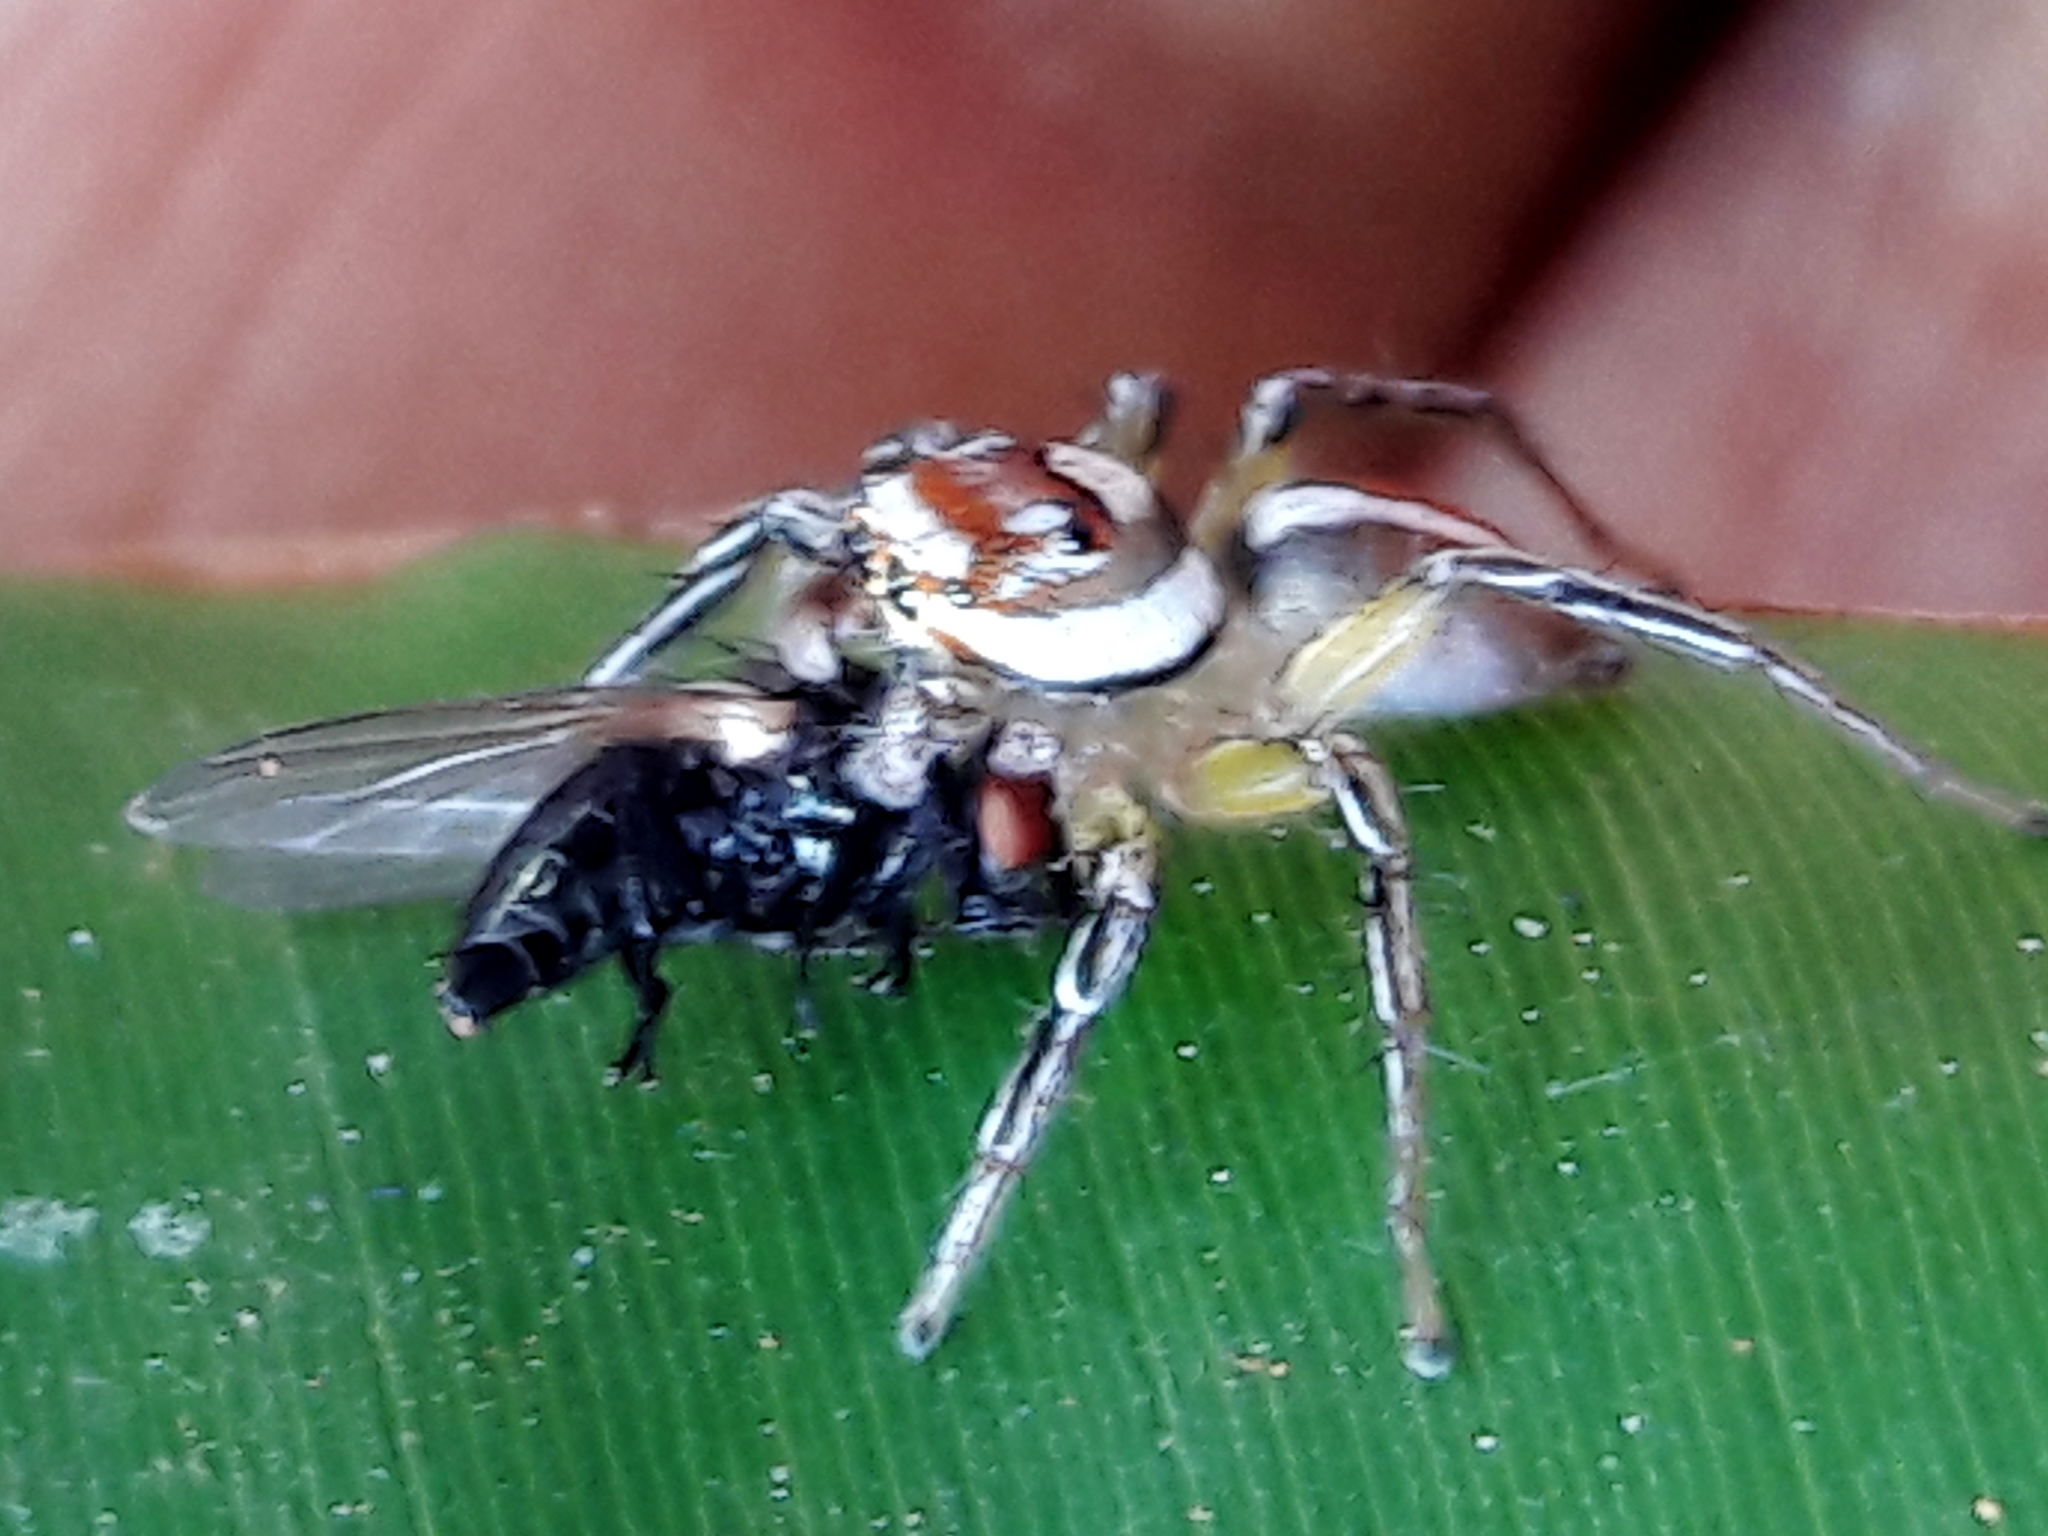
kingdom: Animalia
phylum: Arthropoda
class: Arachnida
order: Araneae
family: Salticidae
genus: Chira
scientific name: Chira simoni
